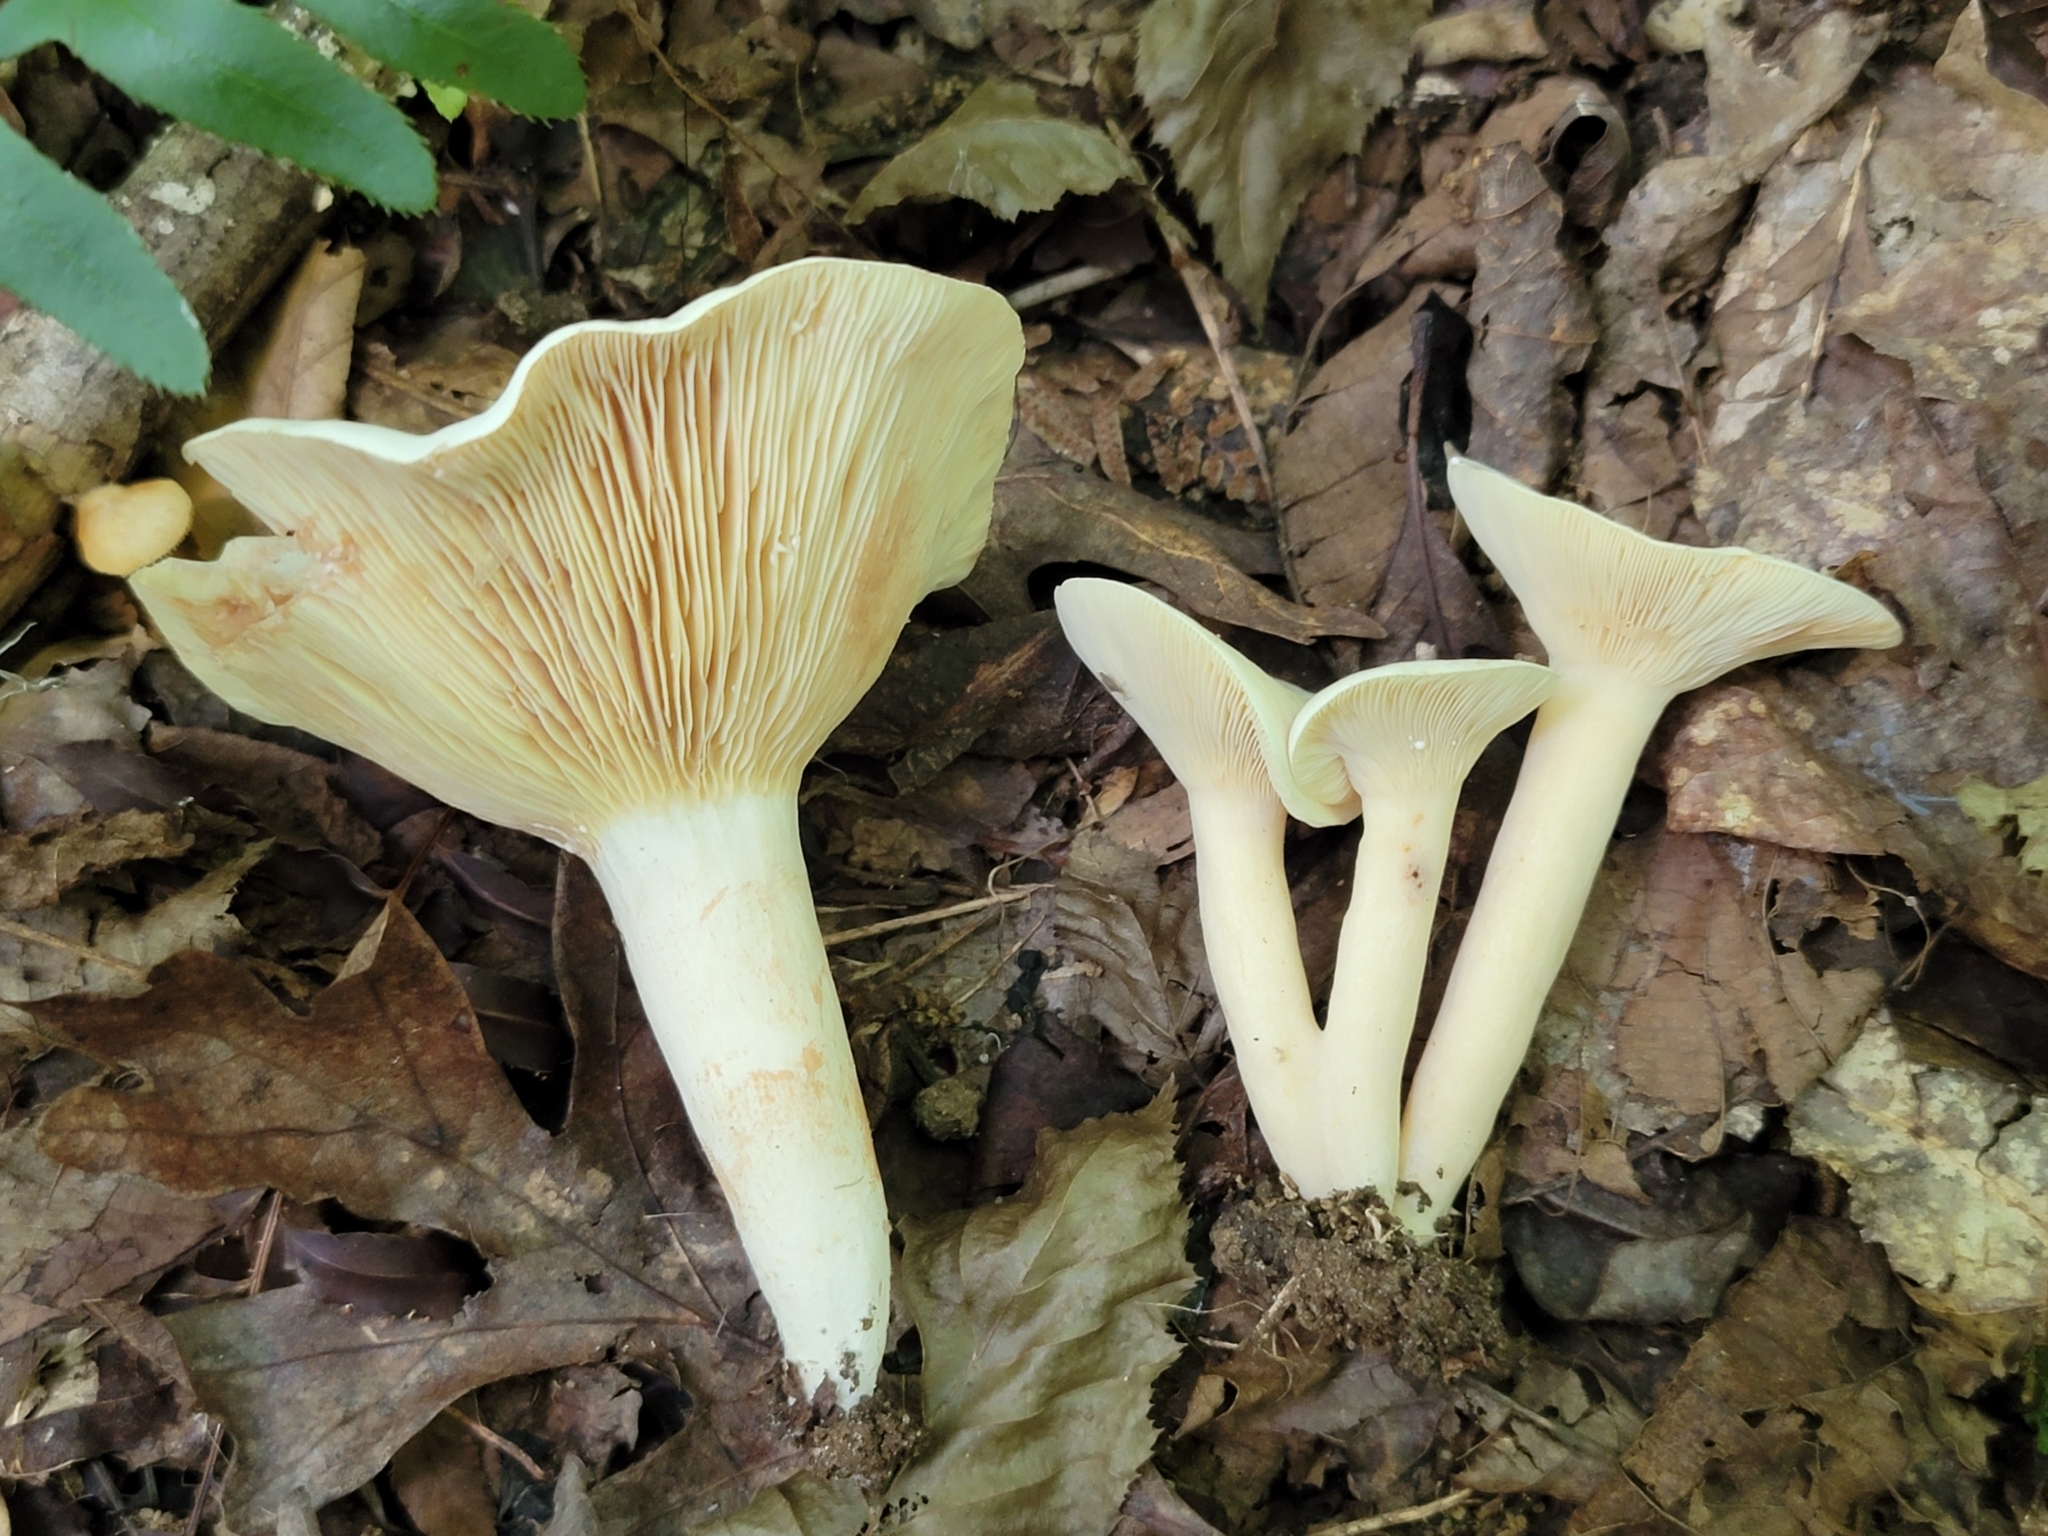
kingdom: Fungi
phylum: Basidiomycota
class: Agaricomycetes
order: Russulales
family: Russulaceae
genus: Lactifluus
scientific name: Lactifluus piperatus
